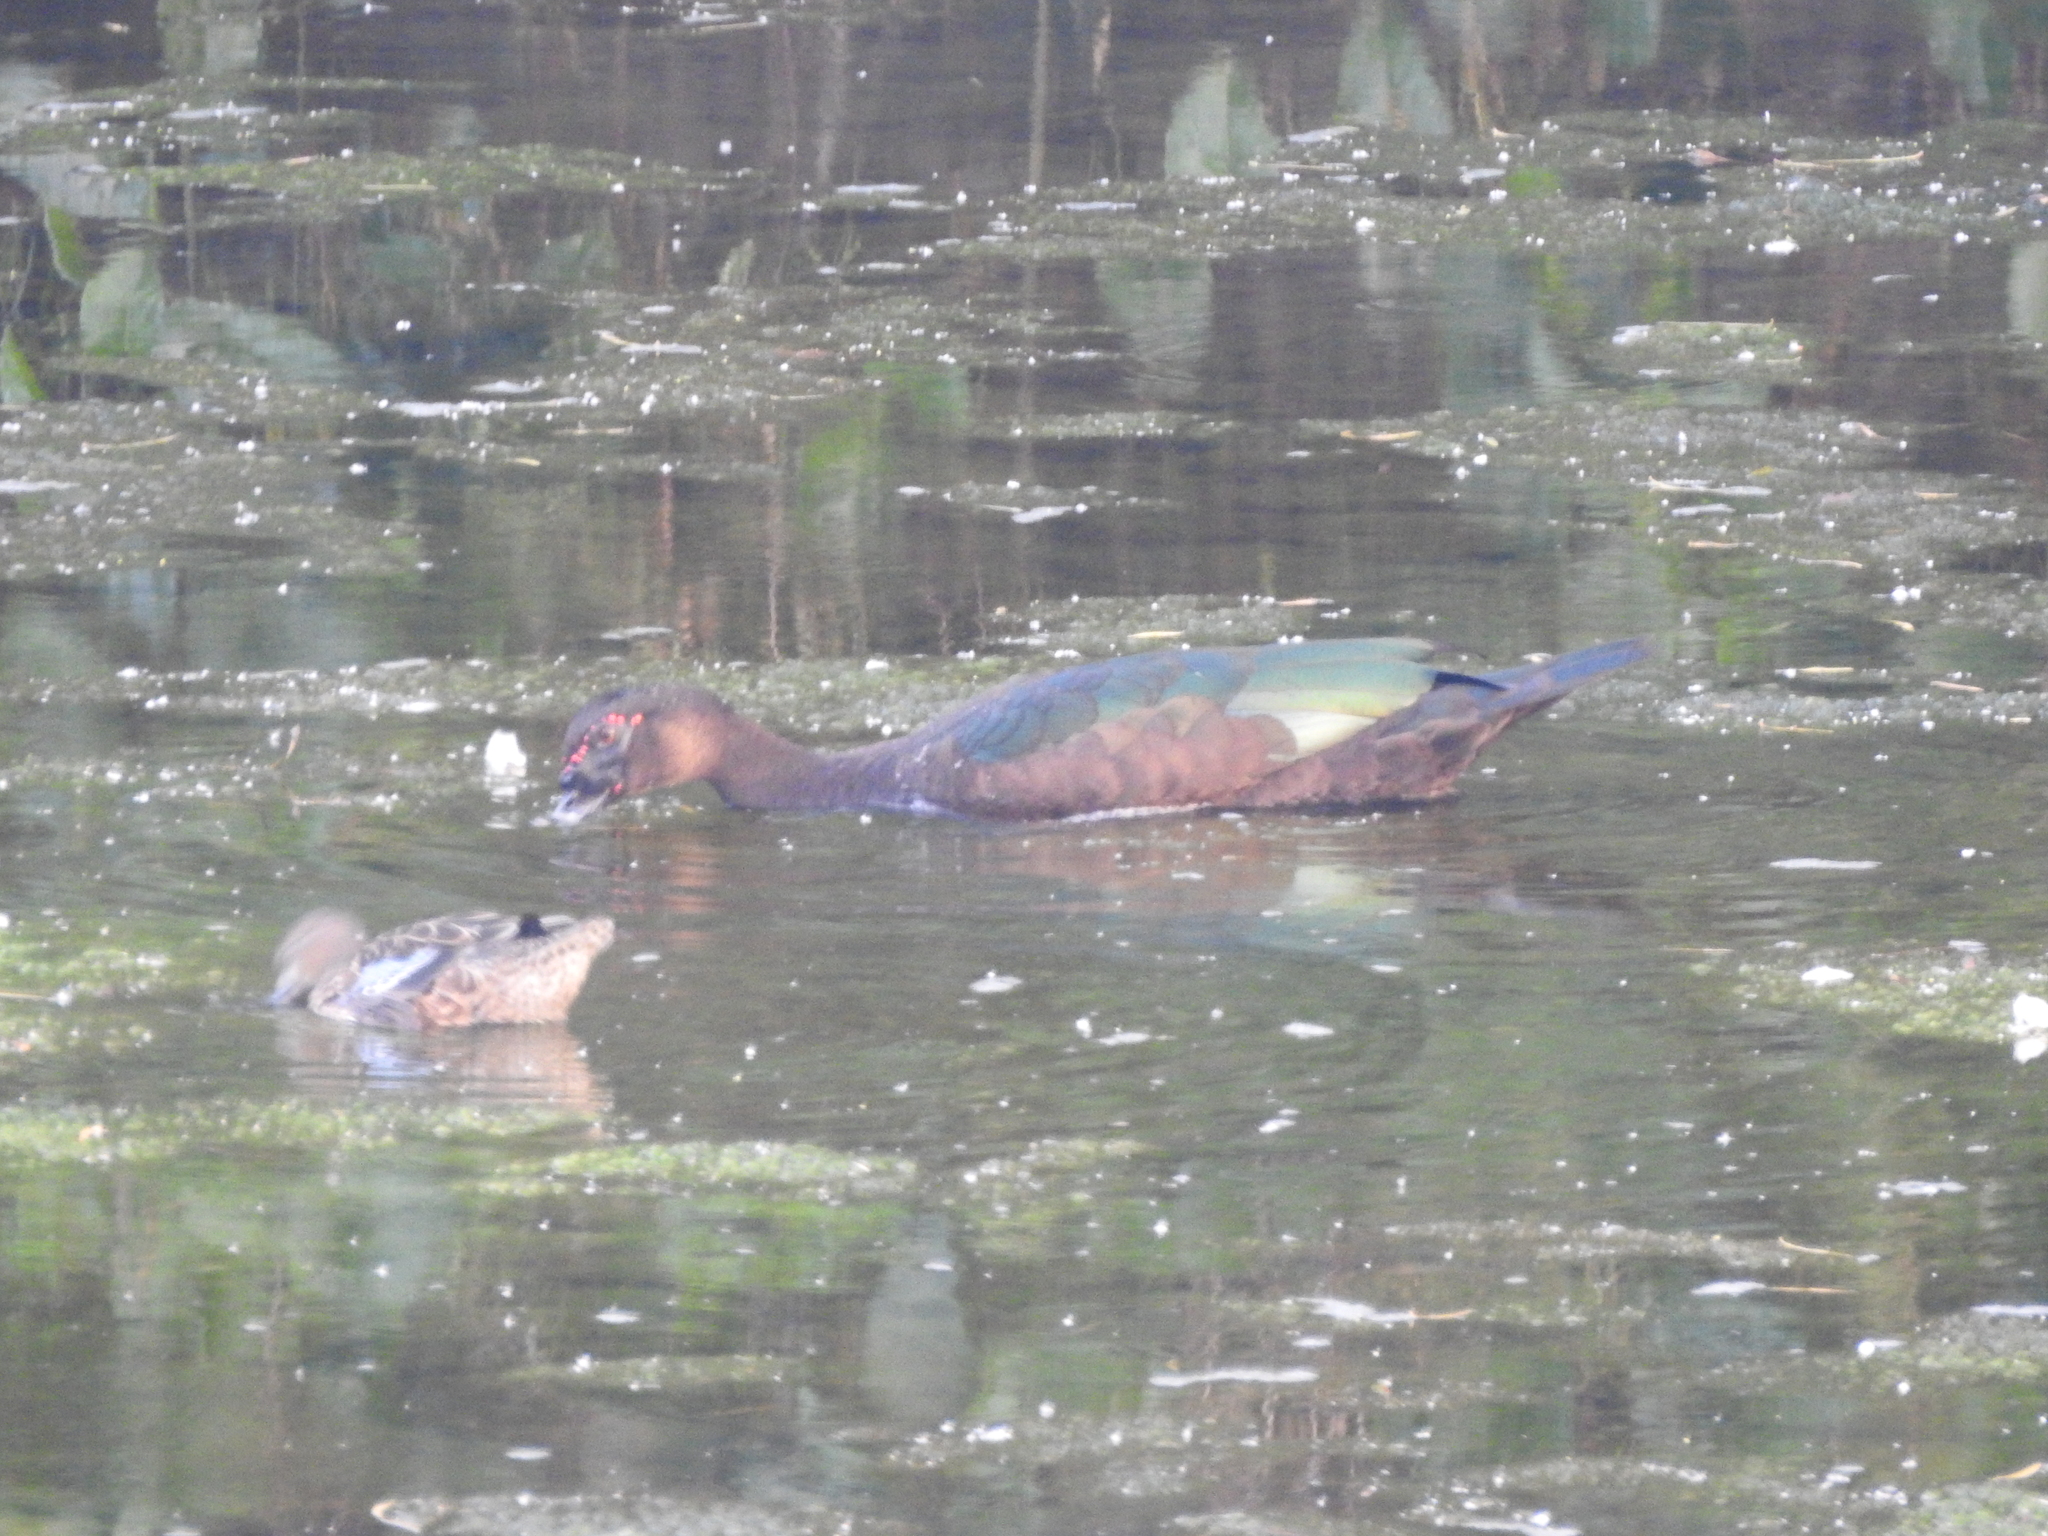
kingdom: Animalia
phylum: Chordata
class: Aves
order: Anseriformes
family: Anatidae
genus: Cairina
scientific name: Cairina moschata
